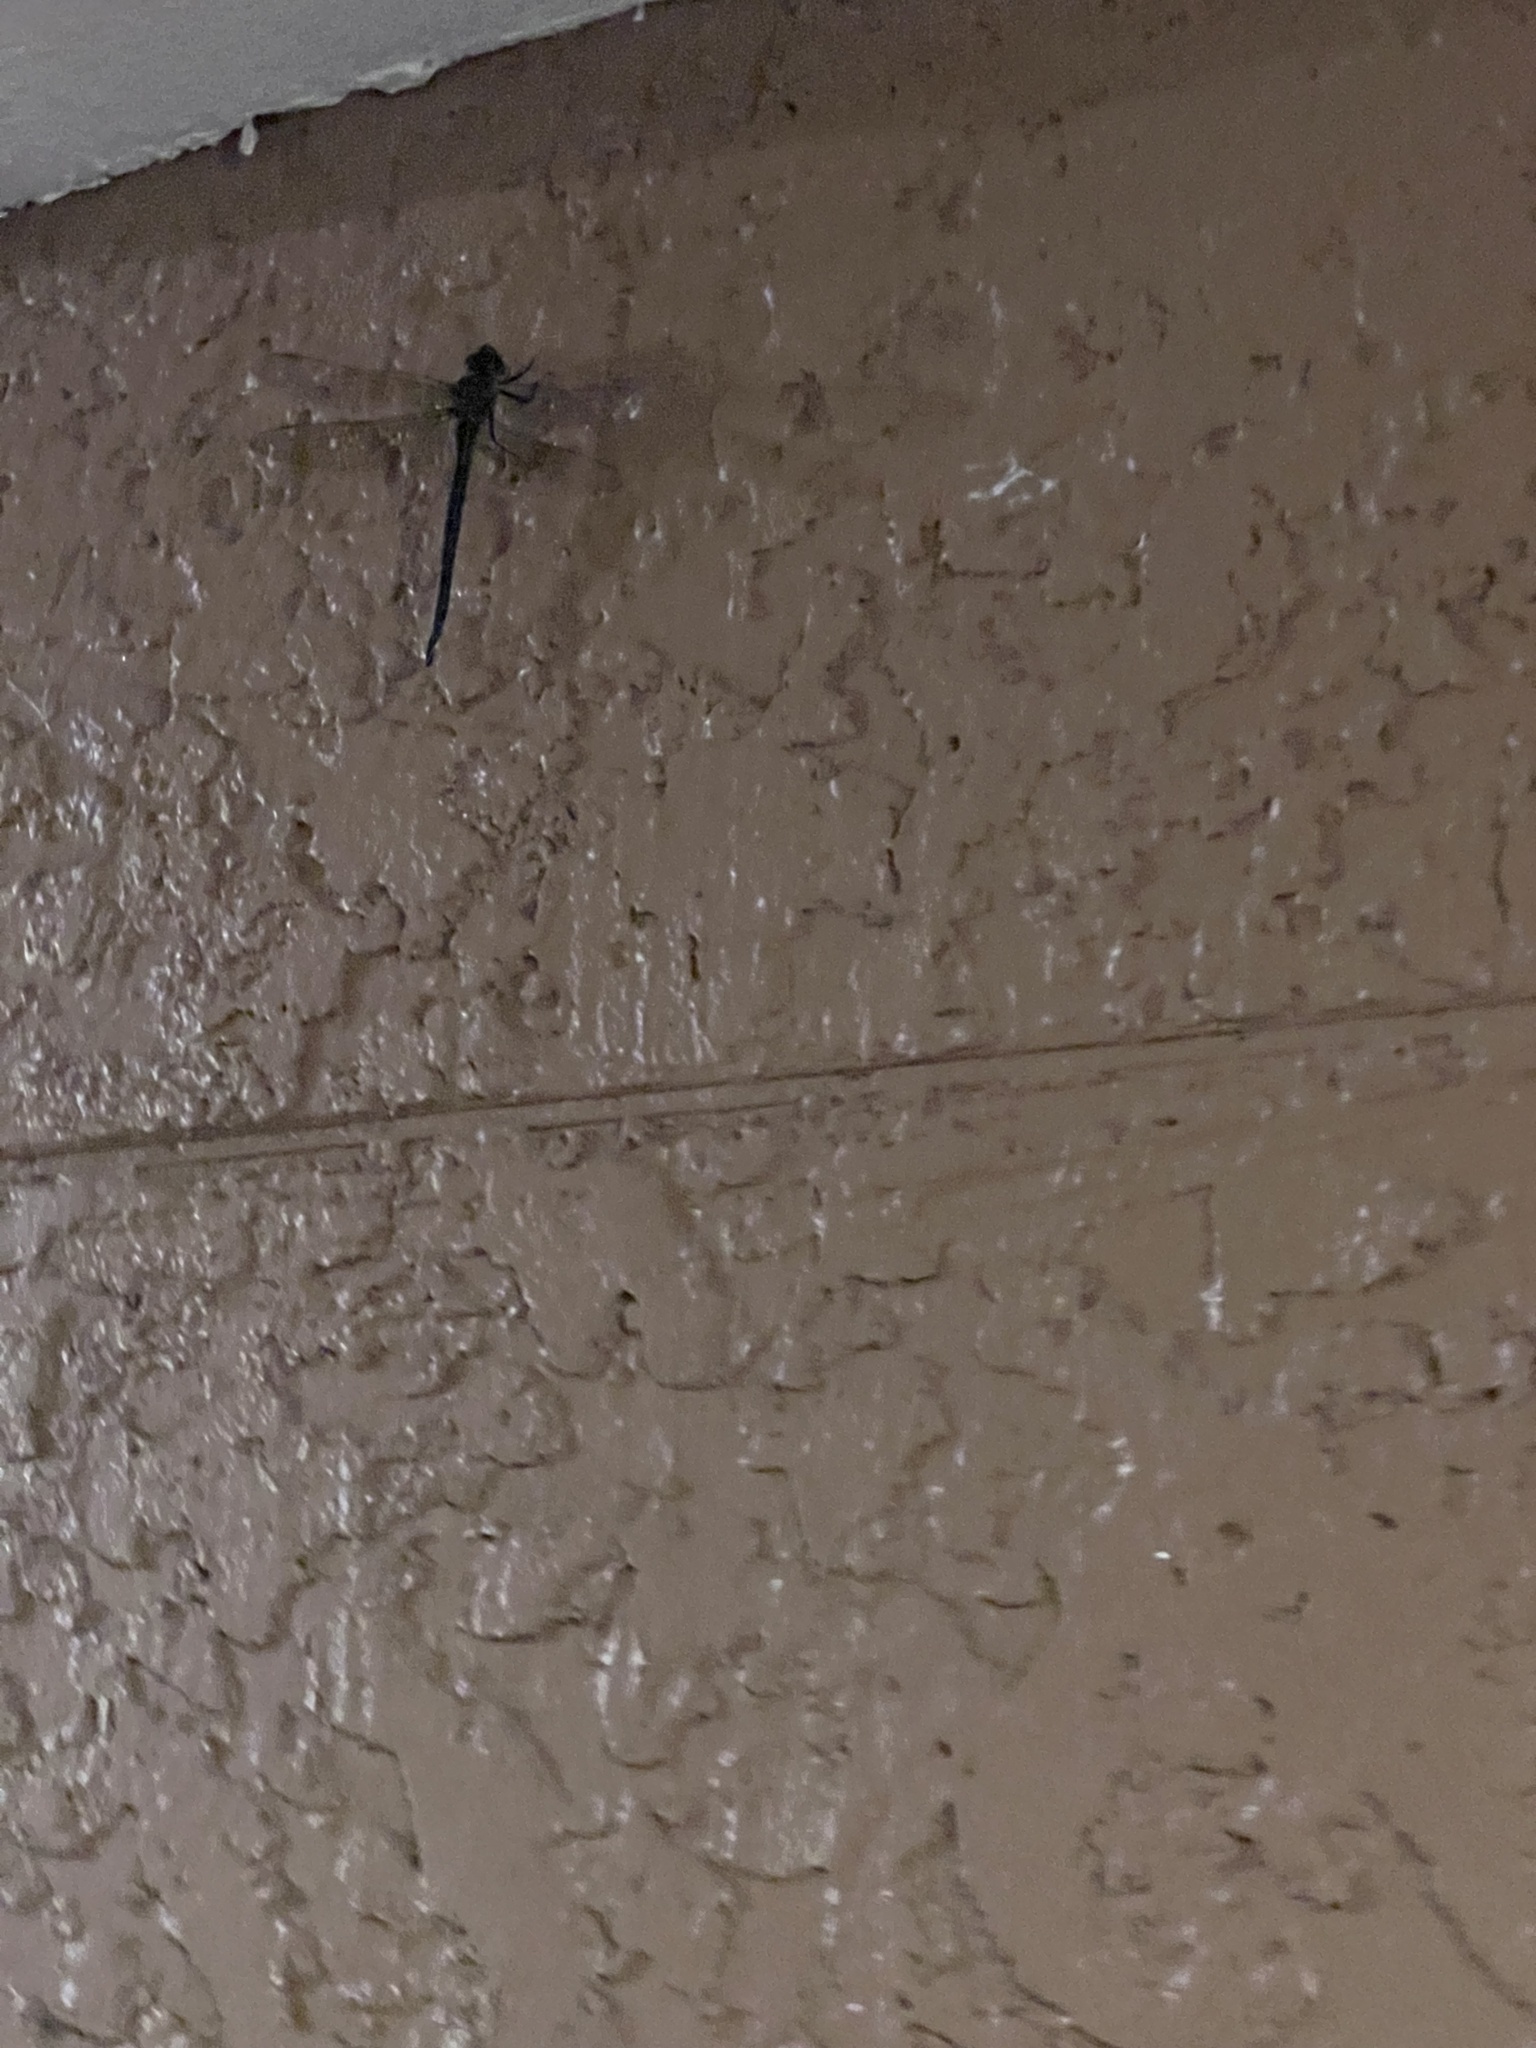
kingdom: Animalia
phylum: Arthropoda
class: Insecta
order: Odonata
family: Aeshnidae
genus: Epiaeschna
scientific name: Epiaeschna heros
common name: Swamp darner
